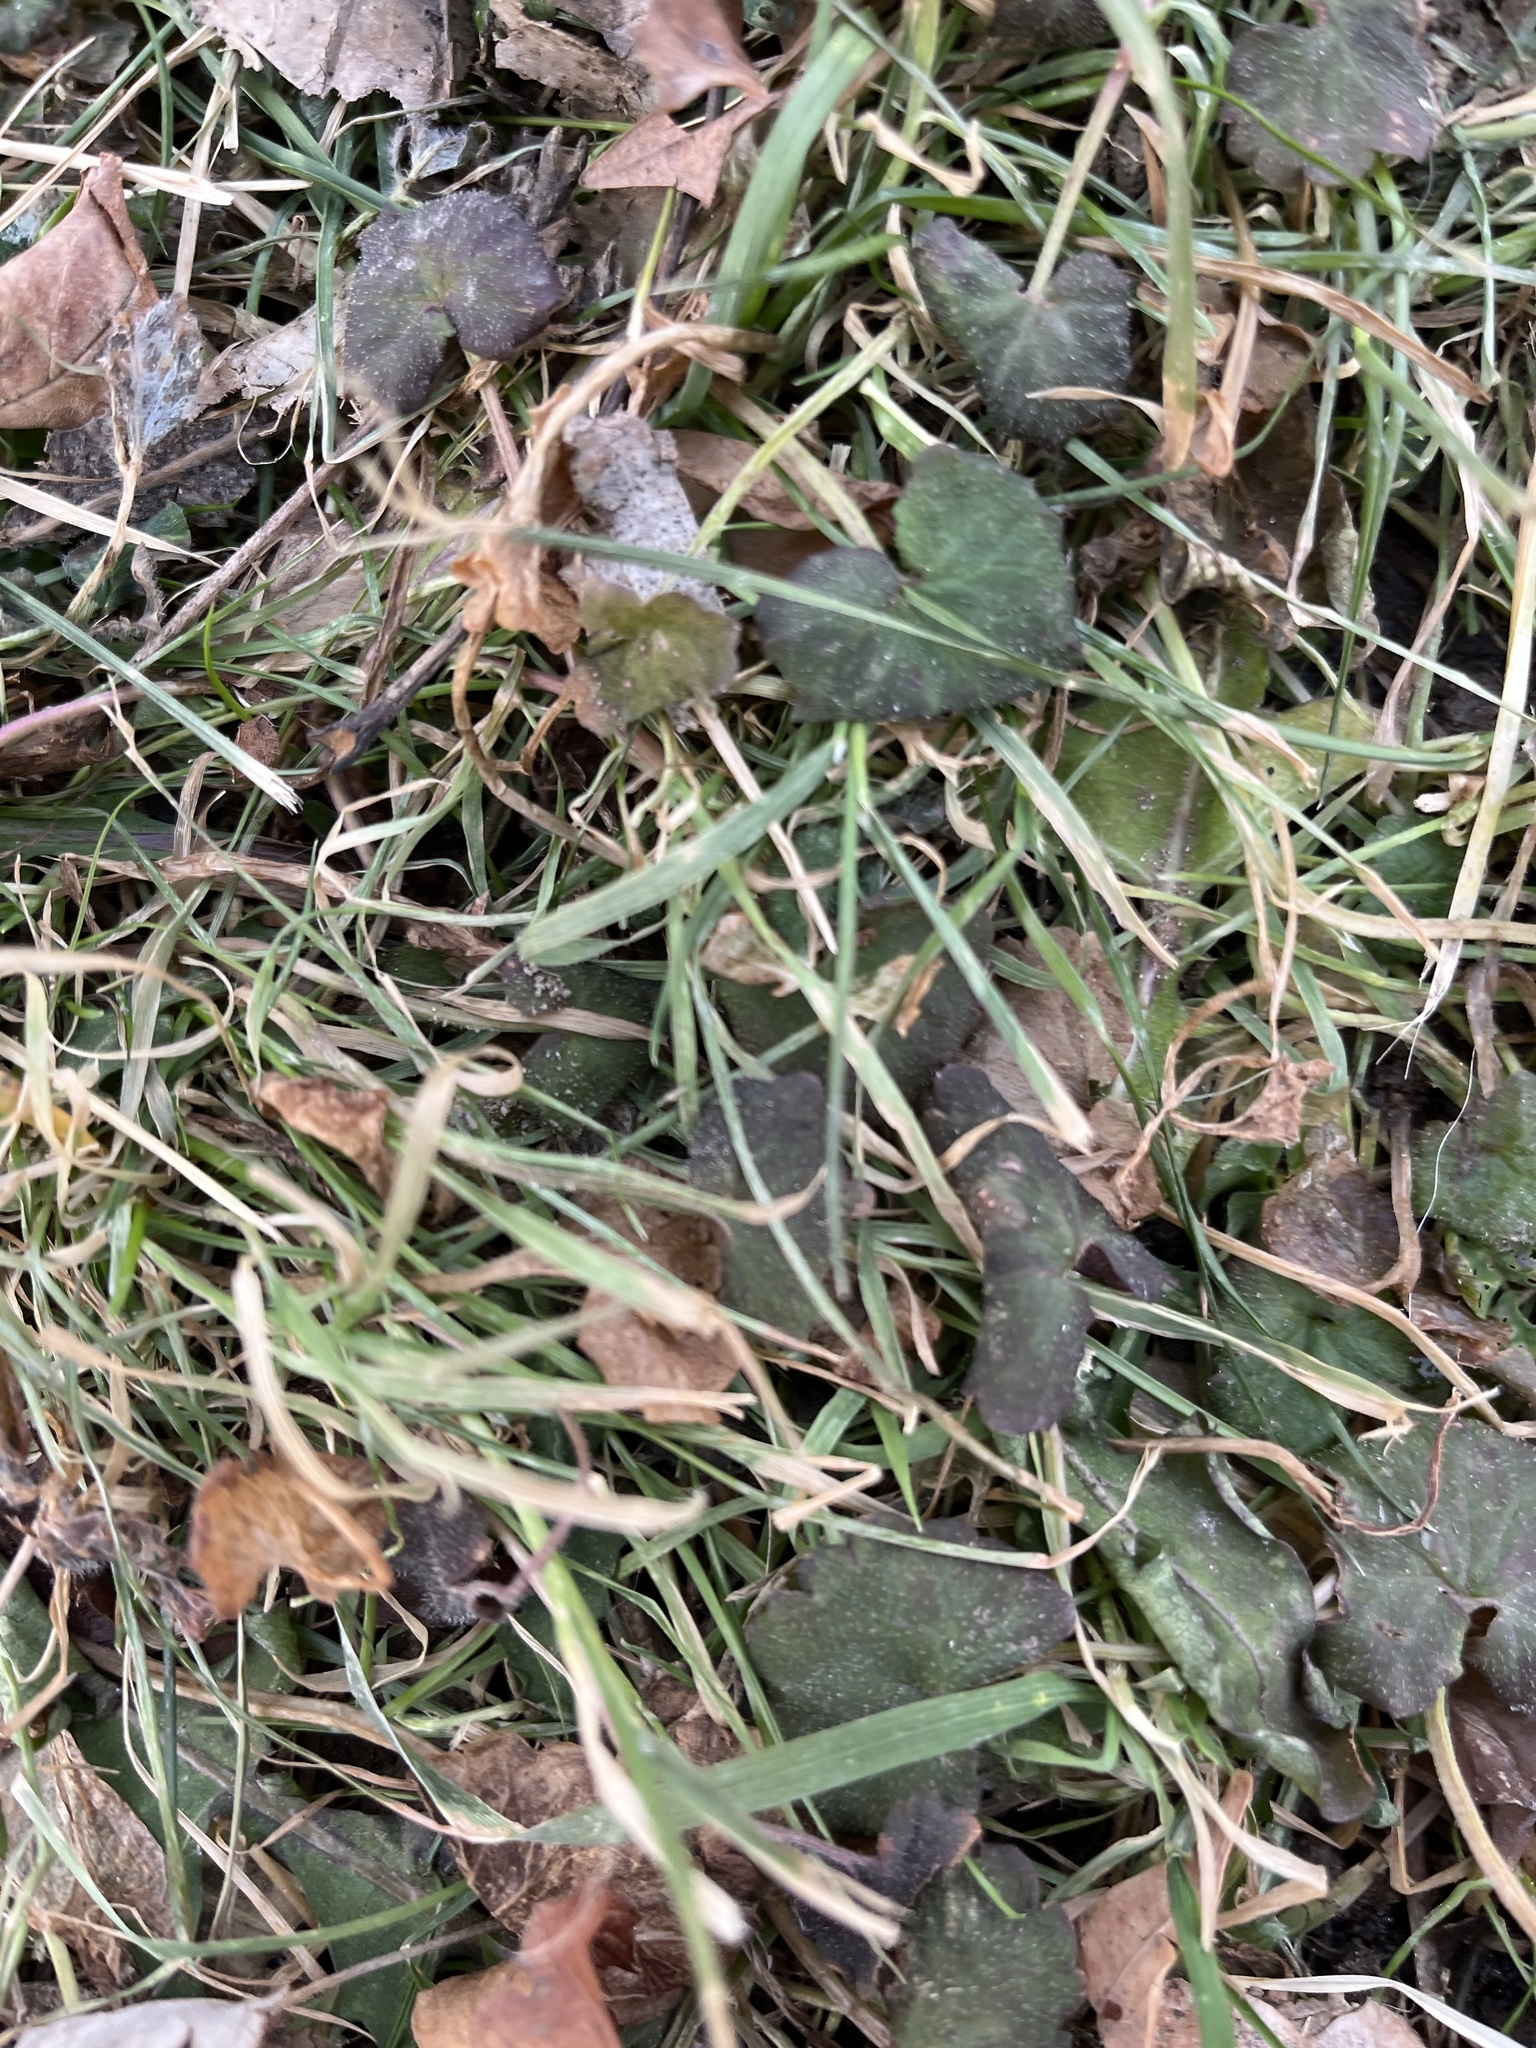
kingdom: Plantae
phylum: Tracheophyta
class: Magnoliopsida
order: Lamiales
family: Lamiaceae
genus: Glechoma
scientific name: Glechoma hederacea
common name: Ground ivy
